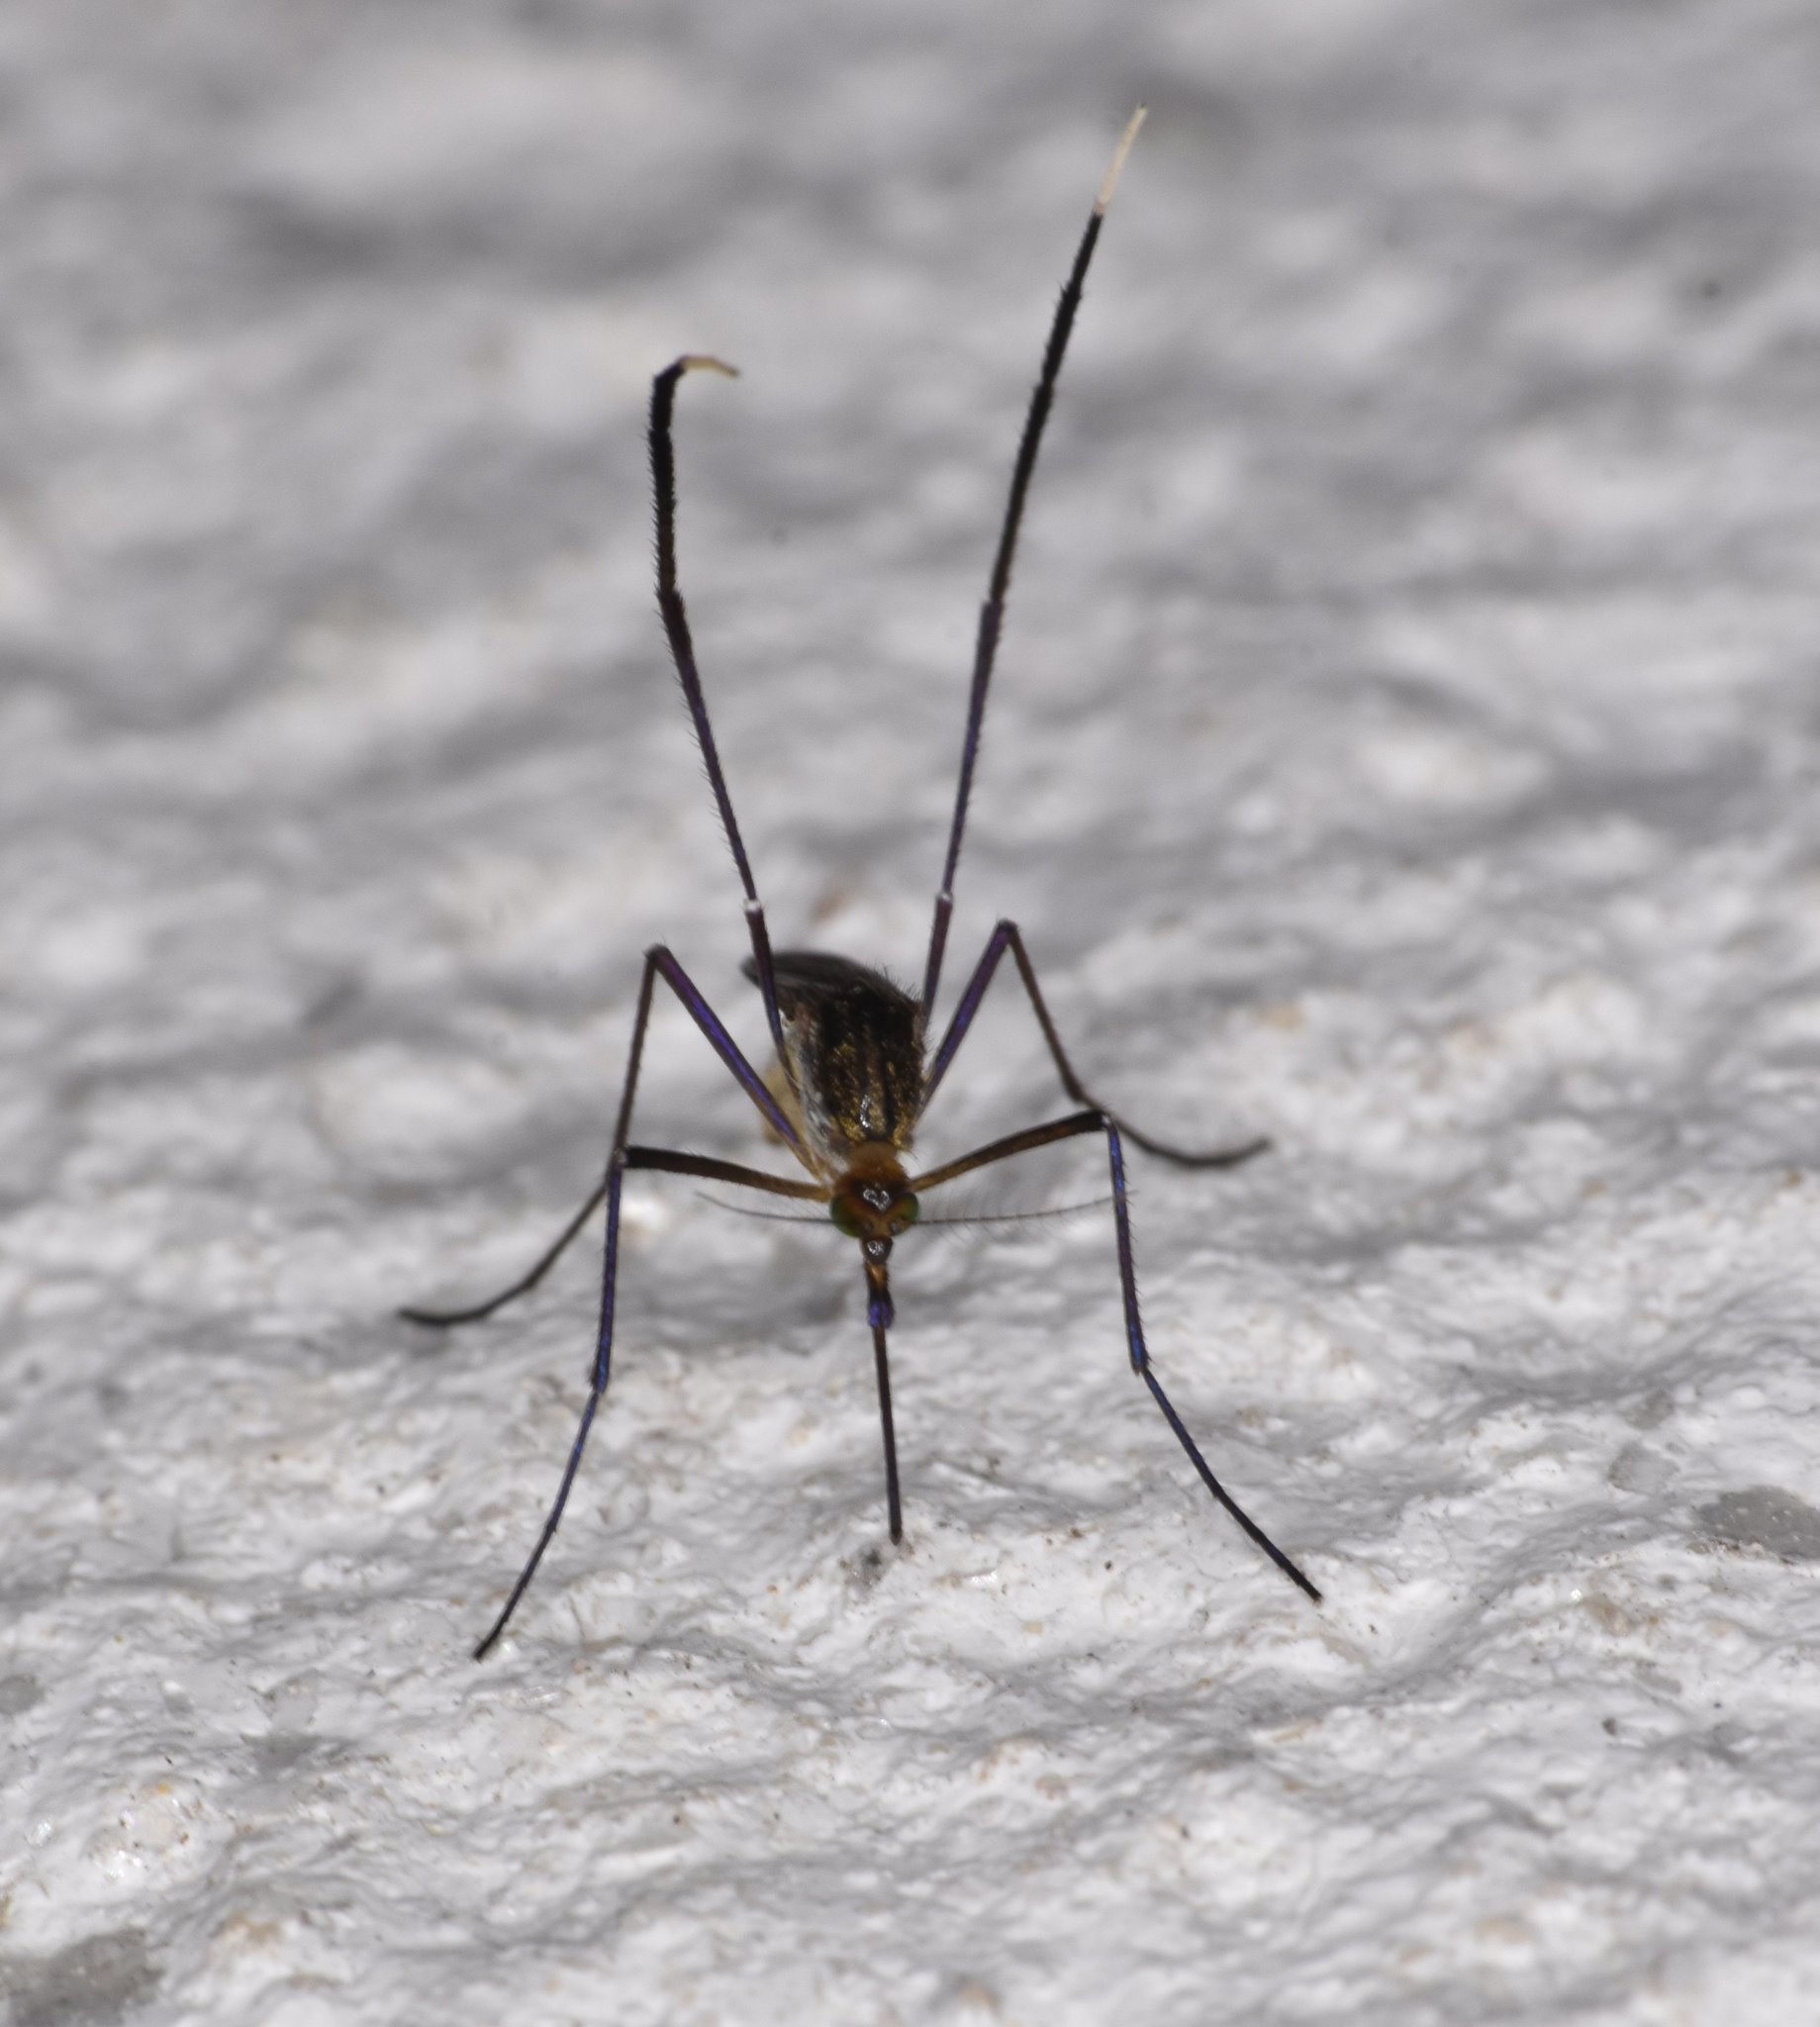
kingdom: Animalia
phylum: Arthropoda
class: Insecta
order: Diptera
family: Culicidae
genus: Psorophora
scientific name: Psorophora ferox
